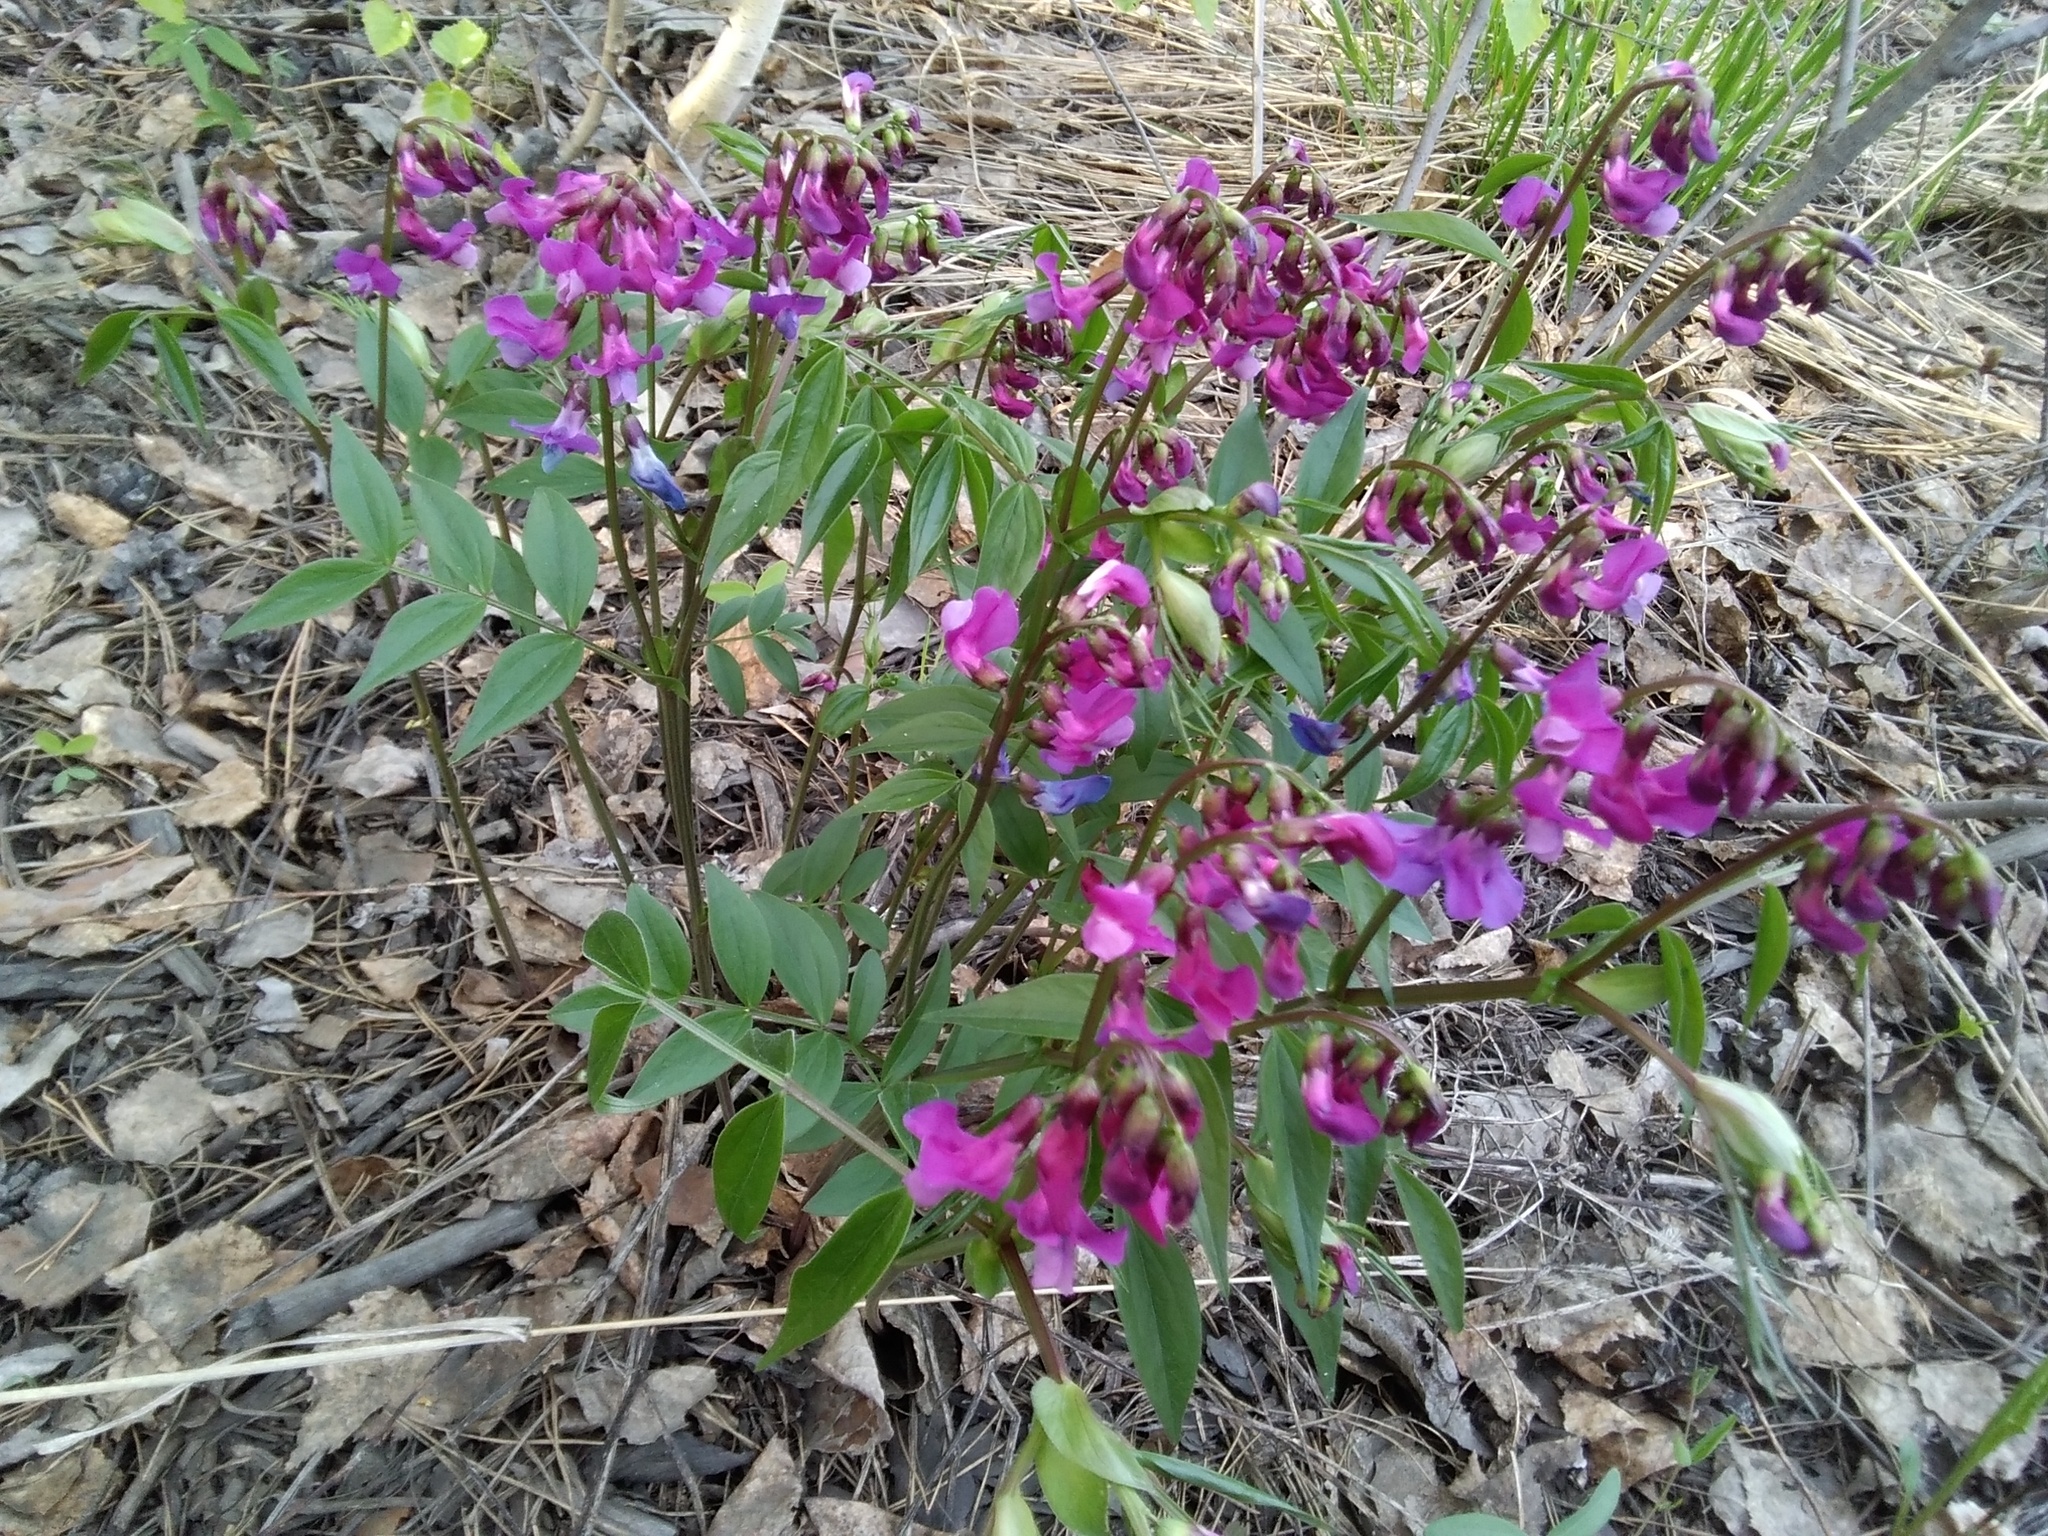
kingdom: Plantae
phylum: Tracheophyta
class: Magnoliopsida
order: Fabales
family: Fabaceae
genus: Lathyrus
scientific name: Lathyrus vernus
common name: Spring pea
